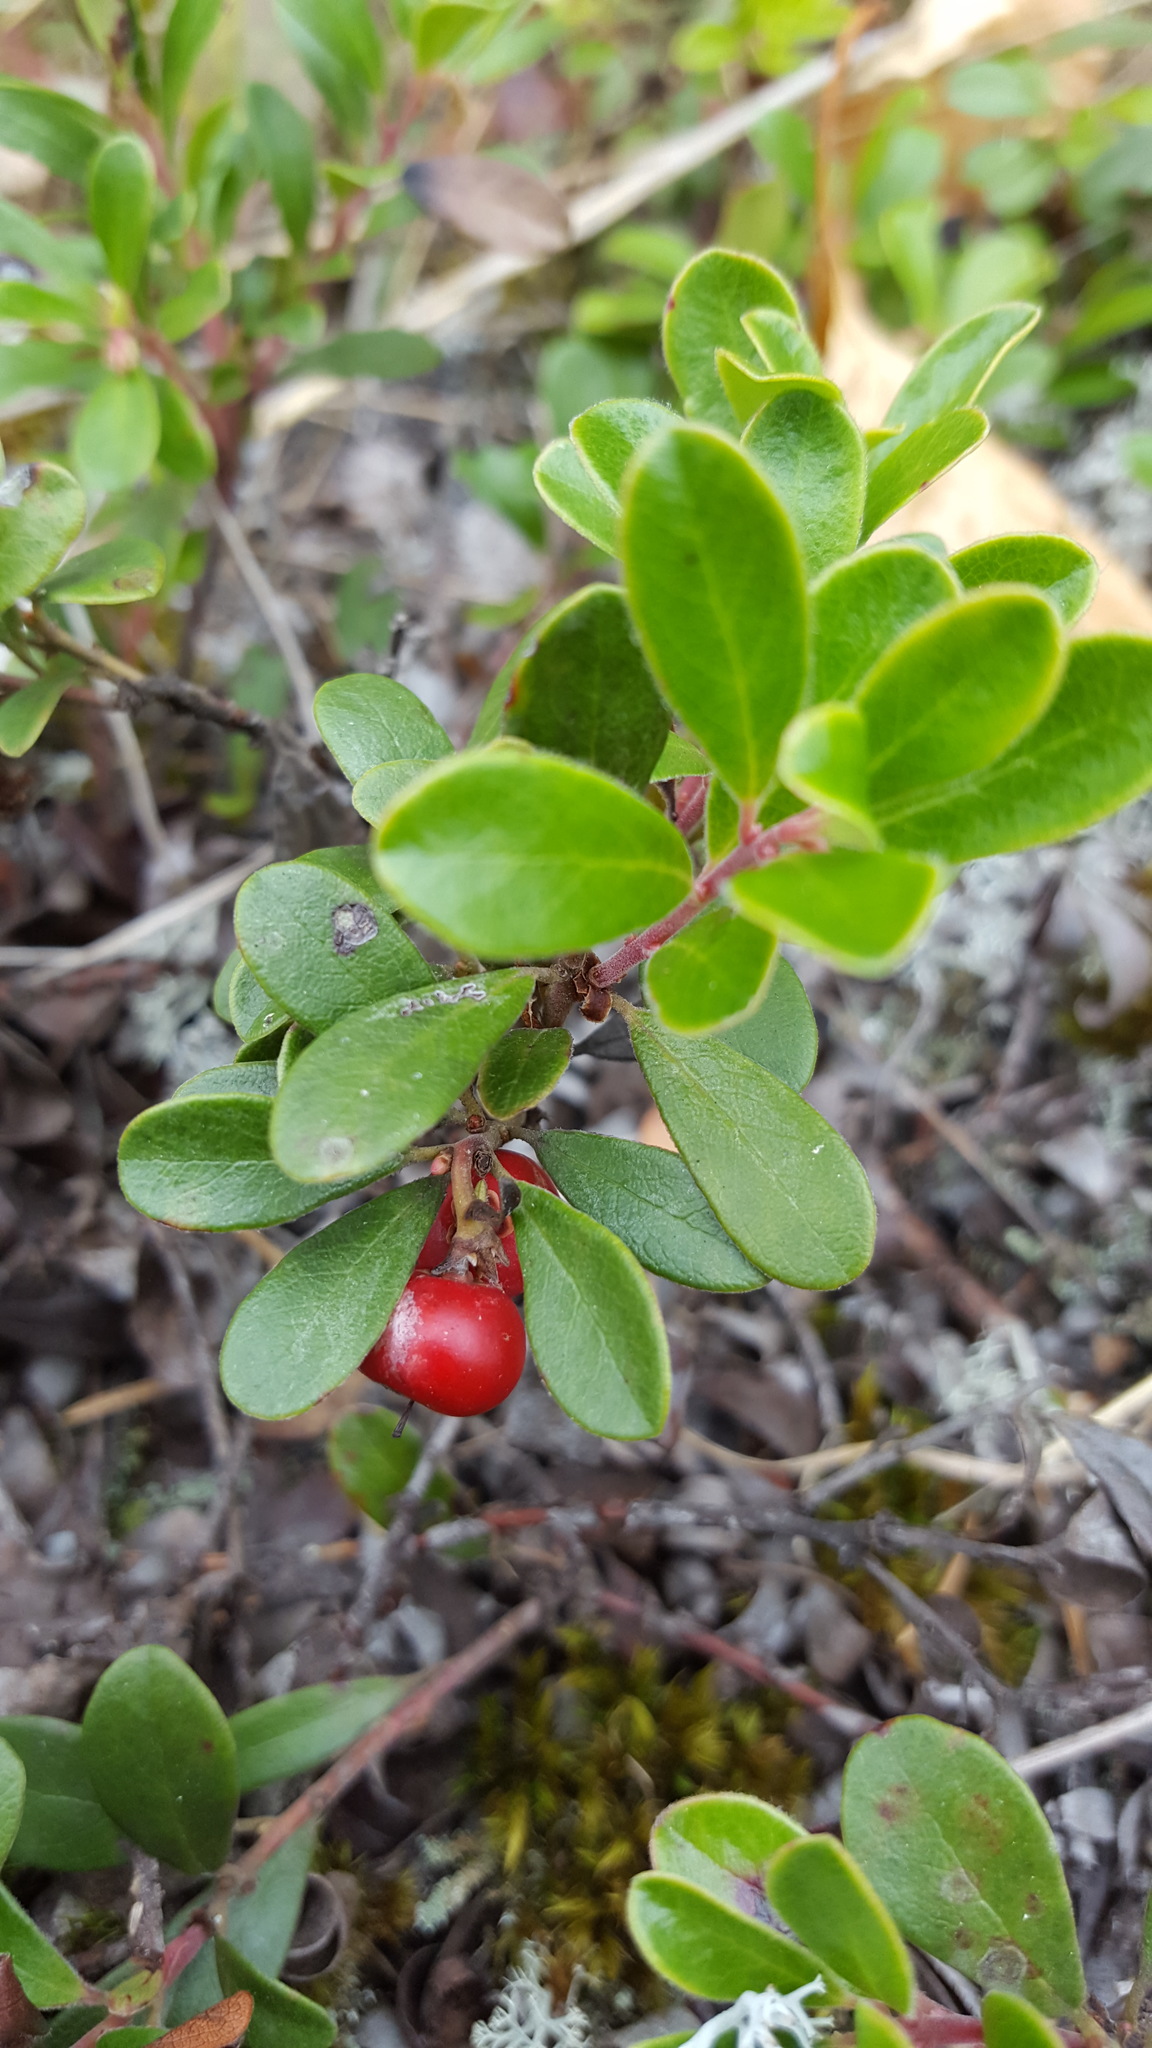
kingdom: Plantae
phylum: Tracheophyta
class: Magnoliopsida
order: Ericales
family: Ericaceae
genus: Arctostaphylos
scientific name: Arctostaphylos uva-ursi
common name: Bearberry
